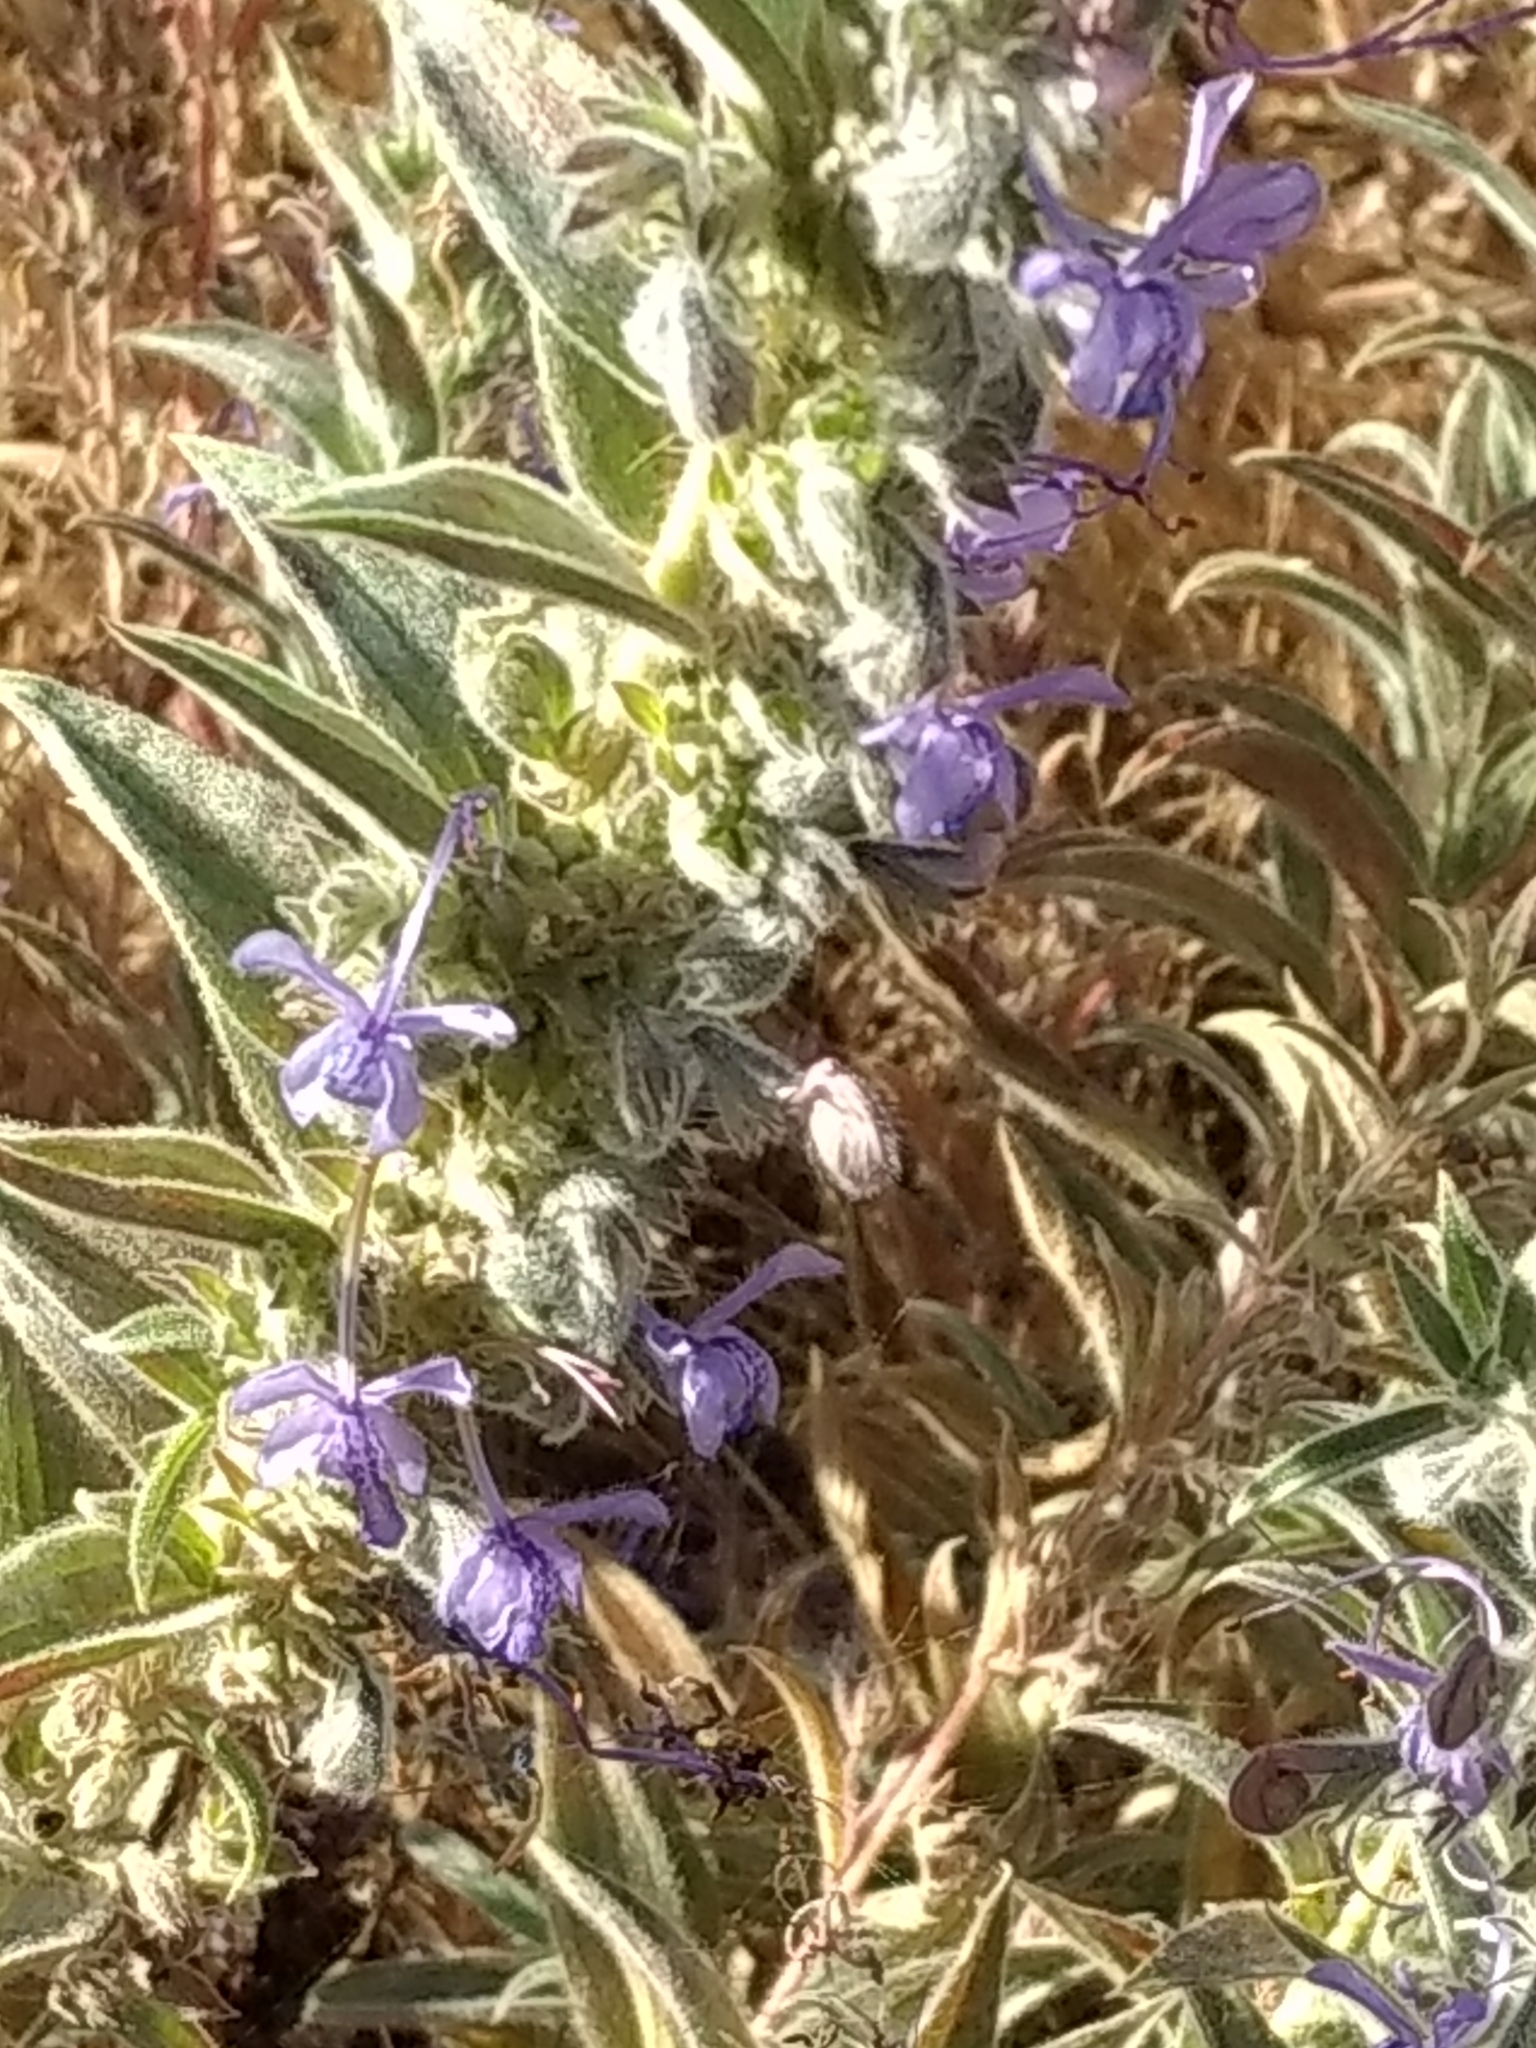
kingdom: Plantae
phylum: Tracheophyta
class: Magnoliopsida
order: Lamiales
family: Lamiaceae
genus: Trichostema
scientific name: Trichostema lanceolatum
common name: Vinegar-weed
